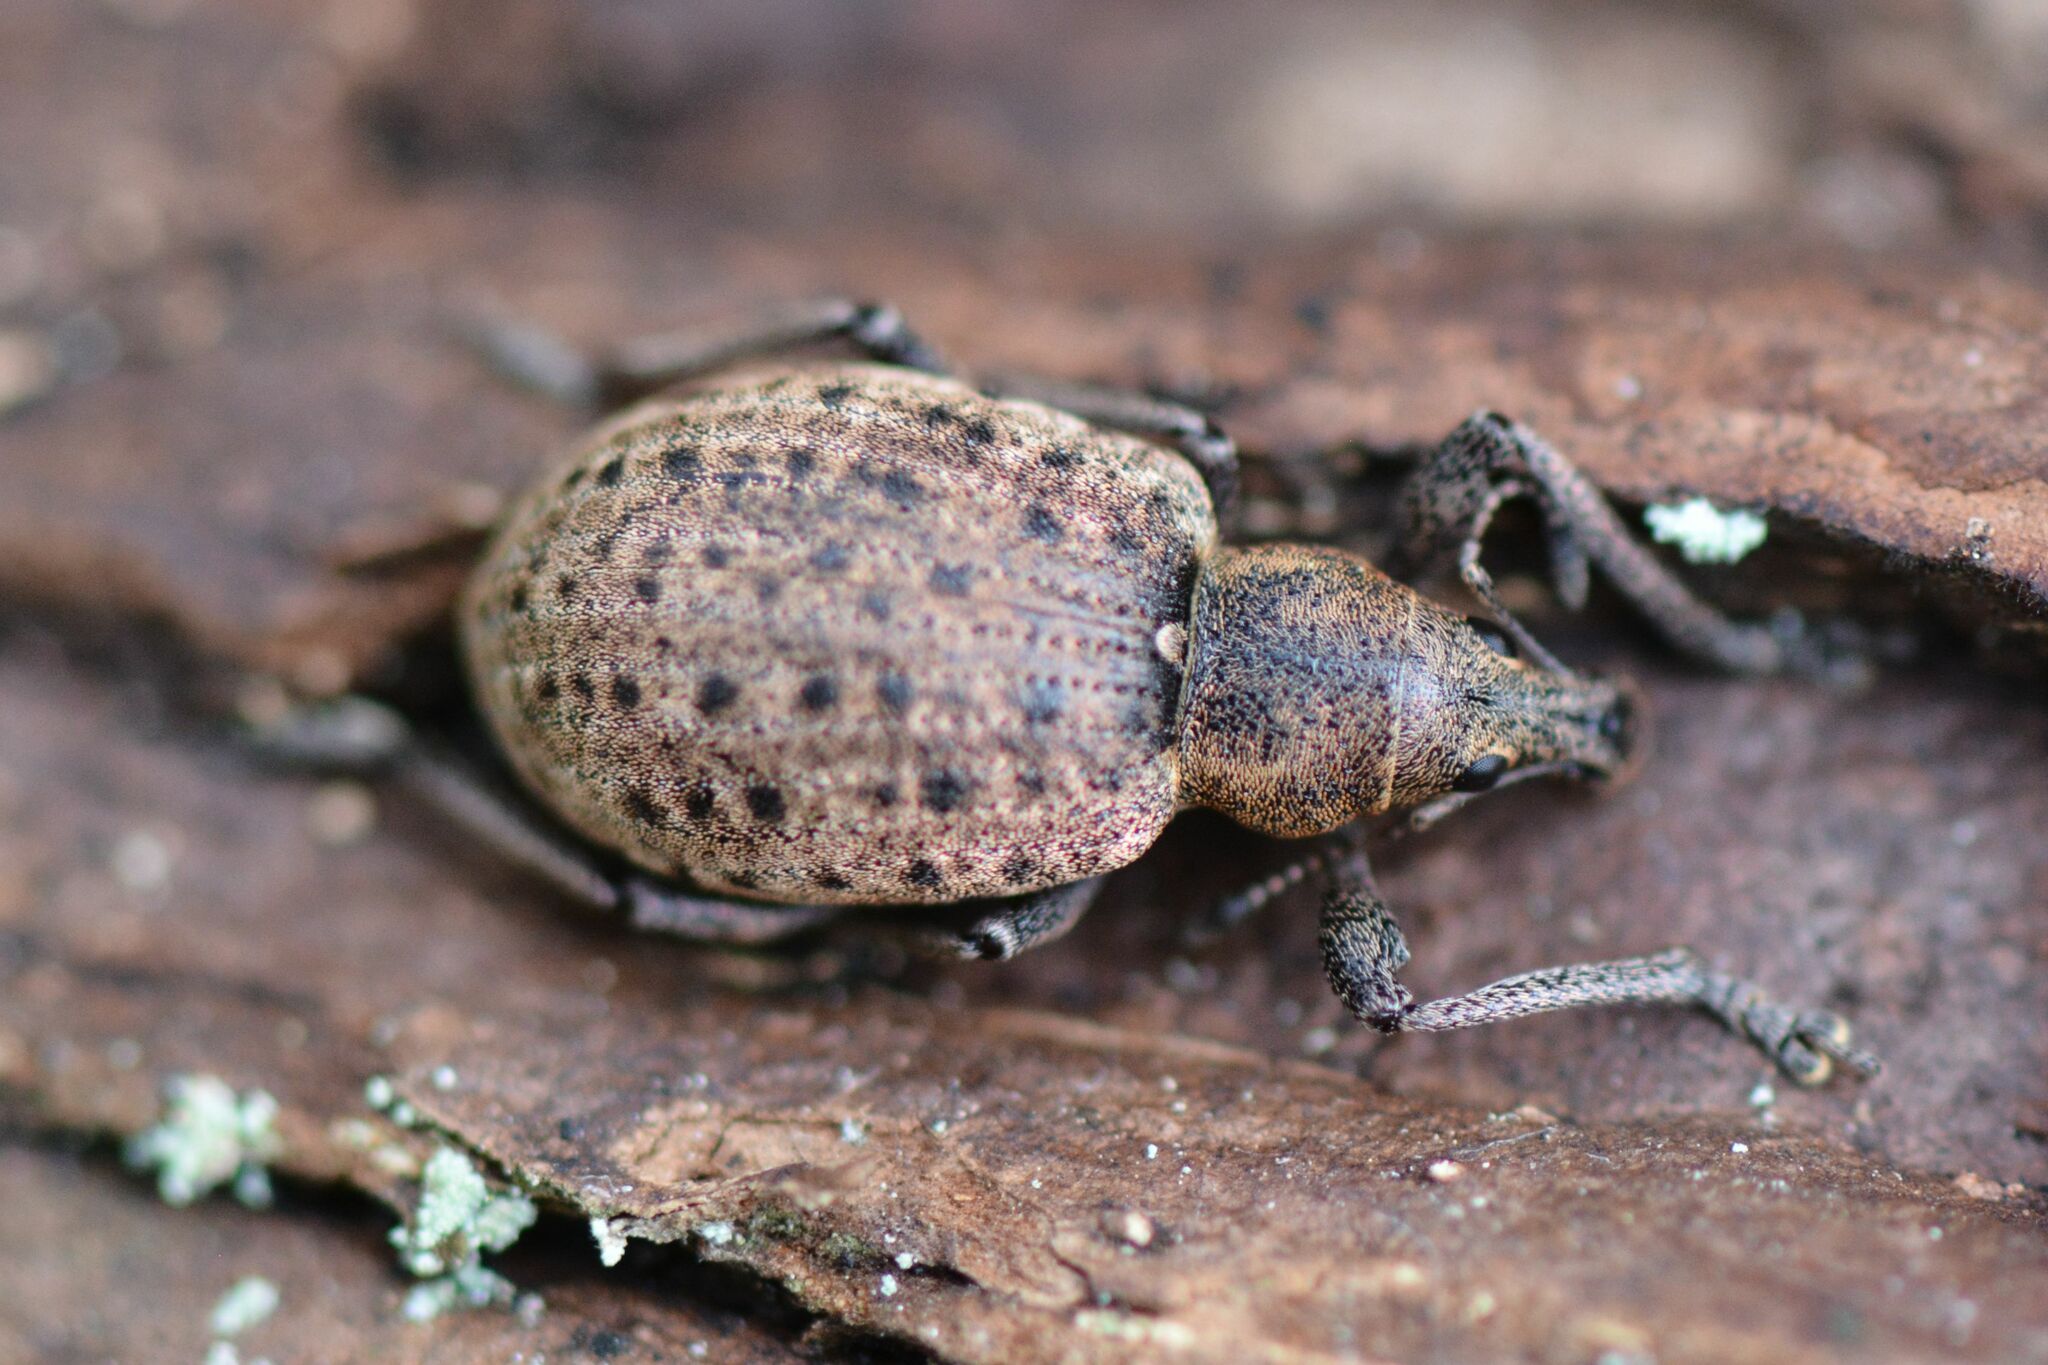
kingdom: Animalia
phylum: Arthropoda
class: Insecta
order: Coleoptera
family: Curculionidae
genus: Liophloeus
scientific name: Liophloeus tessulatus
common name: Weevil
